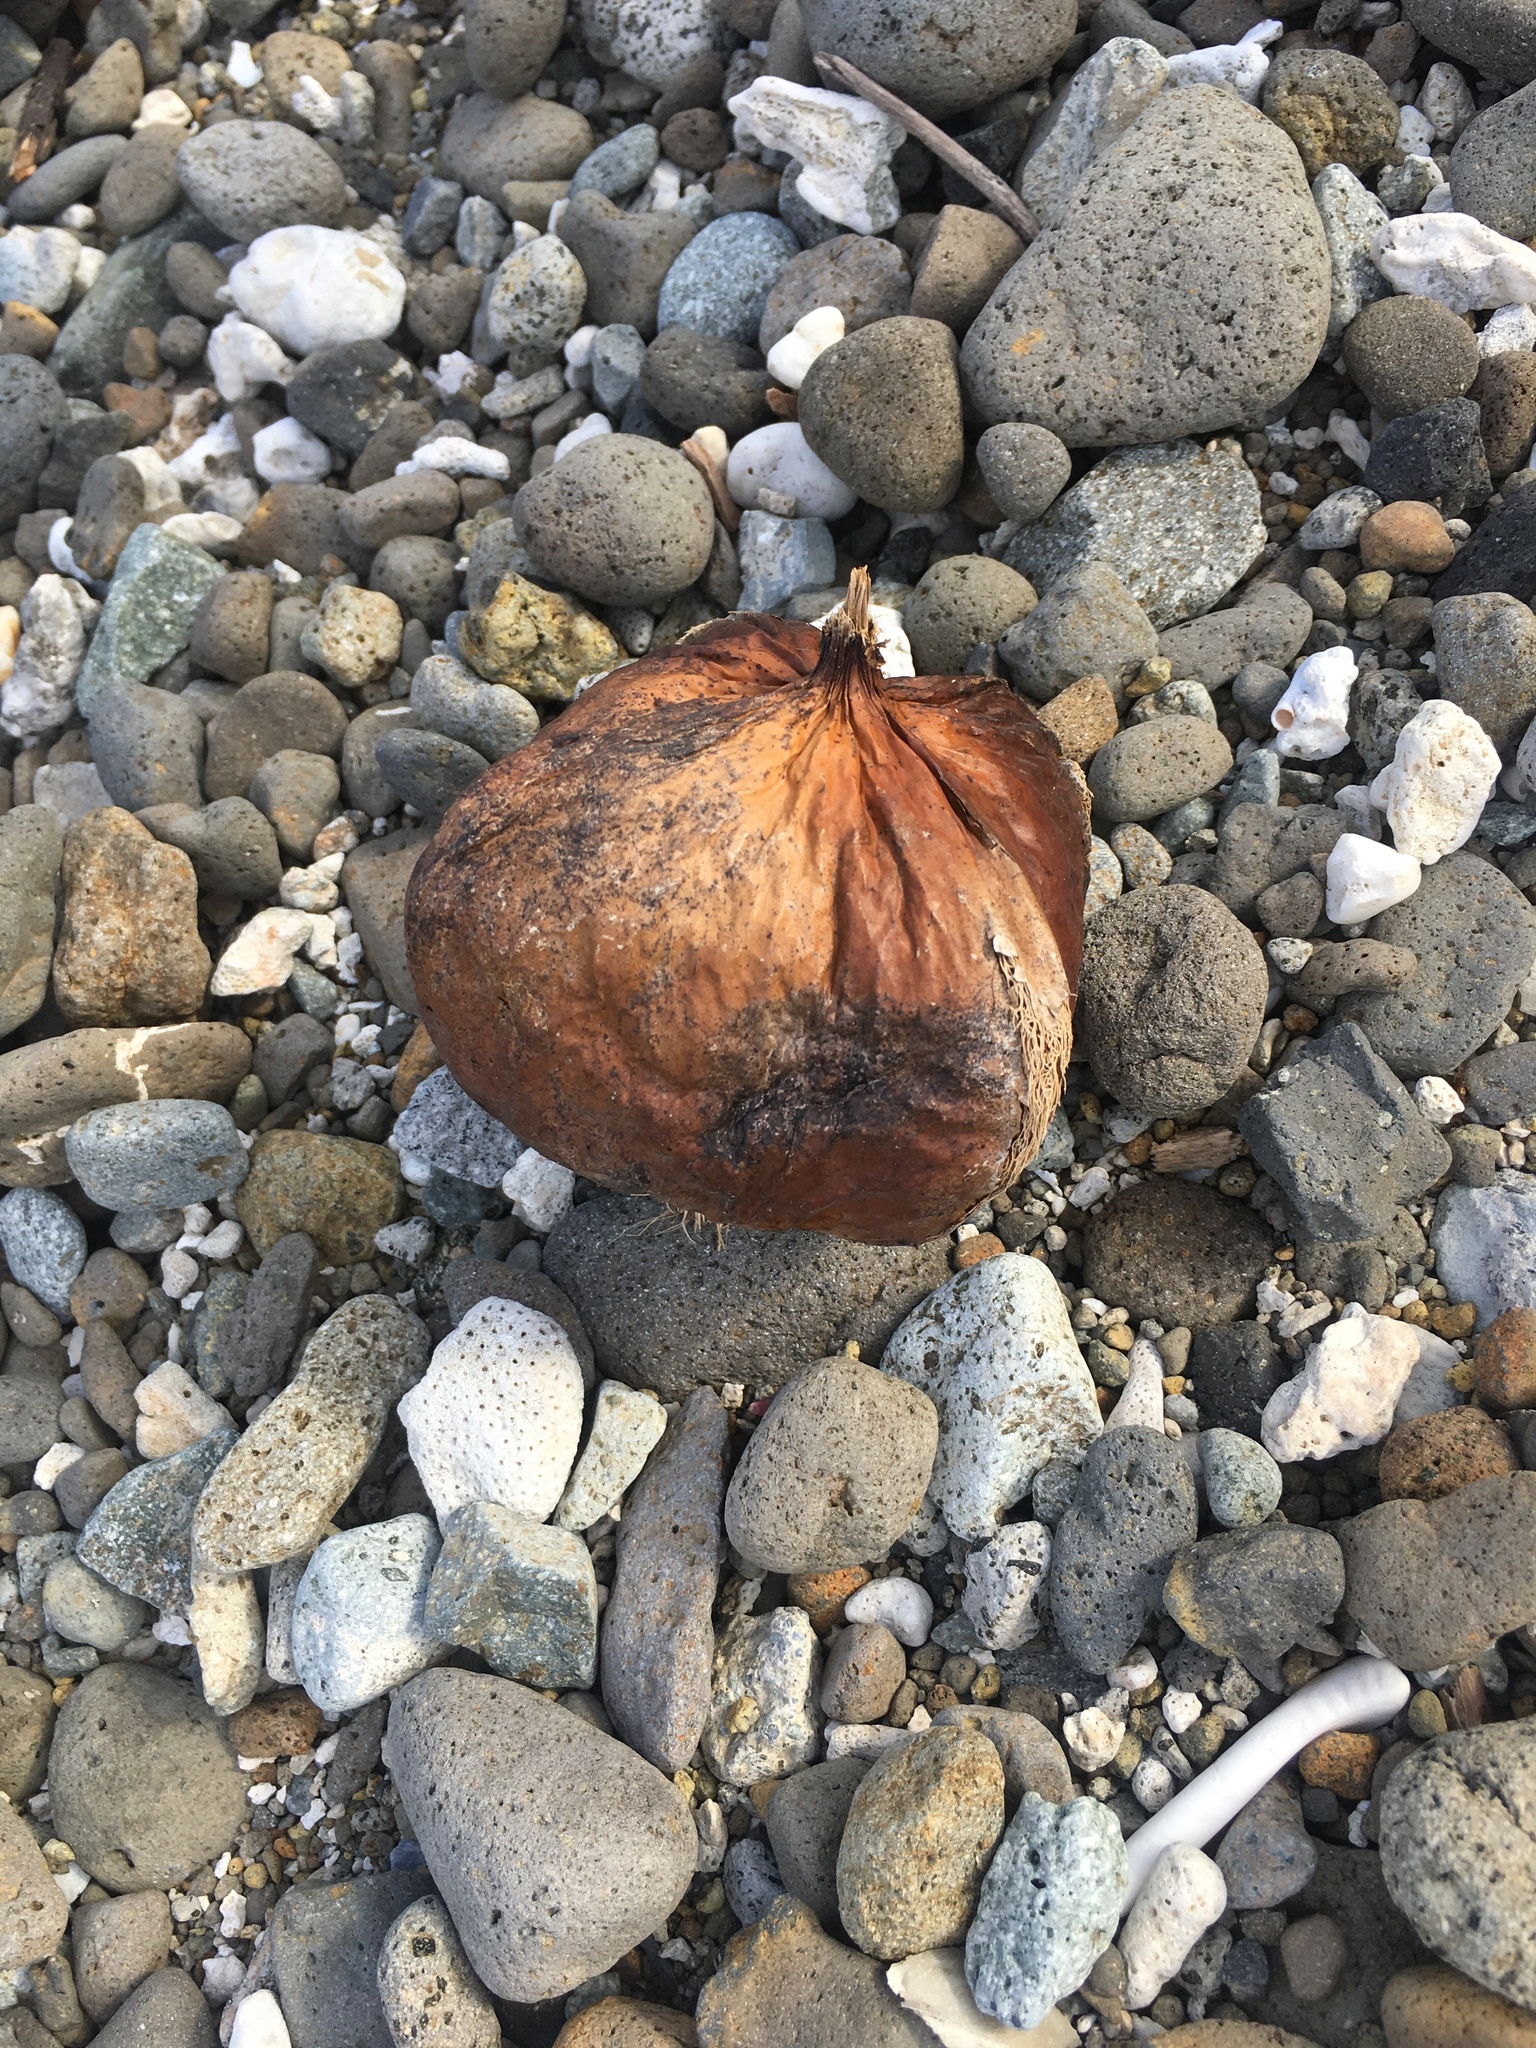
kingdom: Plantae
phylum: Tracheophyta
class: Magnoliopsida
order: Ericales
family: Lecythidaceae
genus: Barringtonia
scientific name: Barringtonia asiatica
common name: Mango-pine
